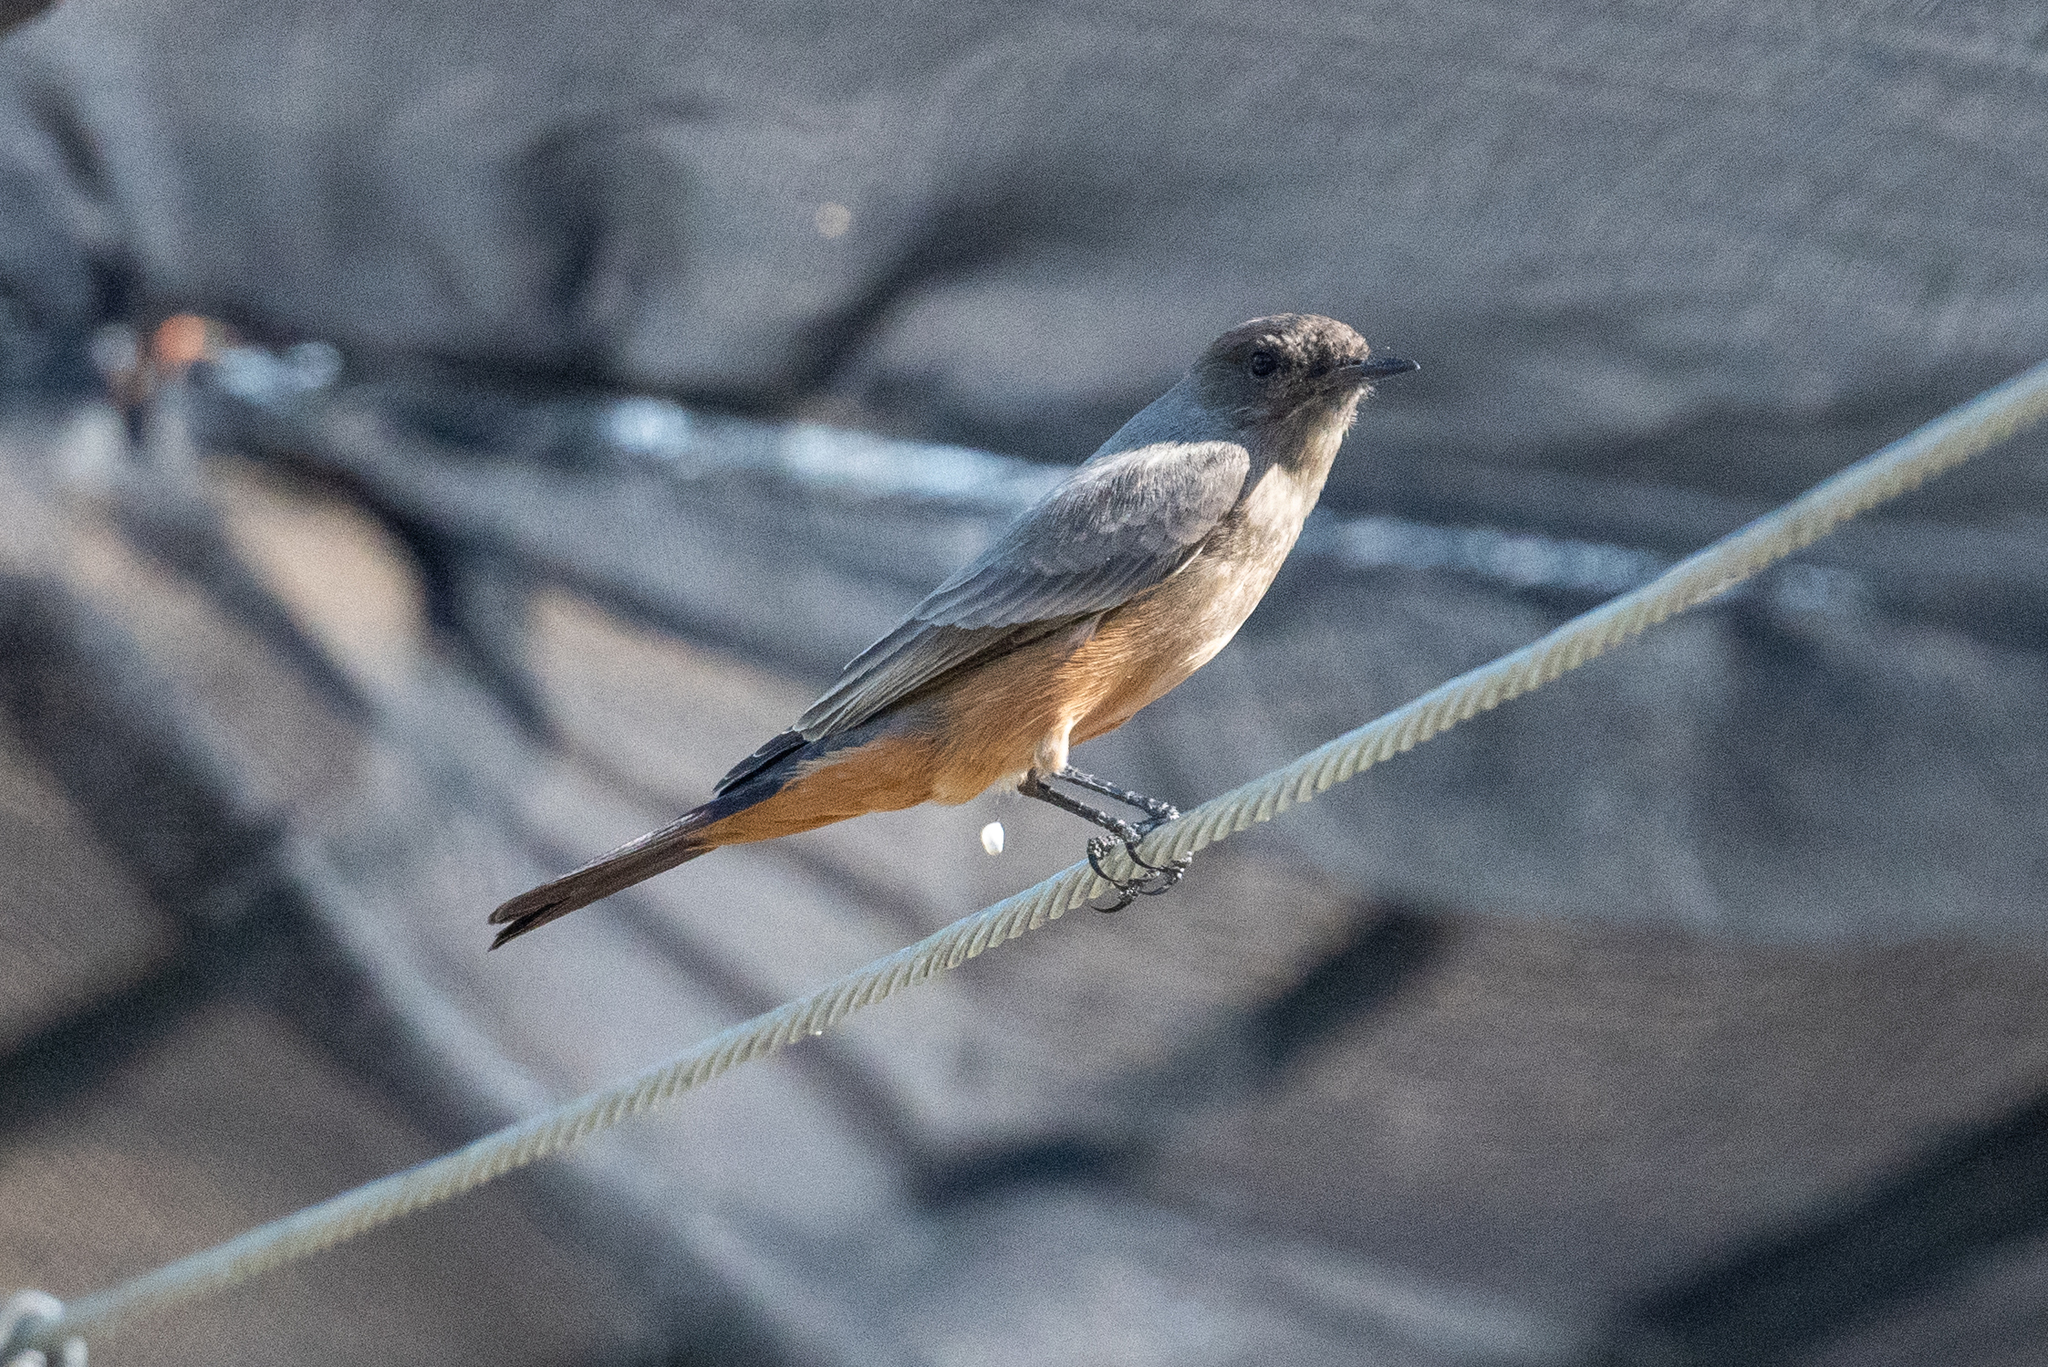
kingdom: Animalia
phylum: Chordata
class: Aves
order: Passeriformes
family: Tyrannidae
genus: Sayornis
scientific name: Sayornis saya
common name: Say's phoebe
